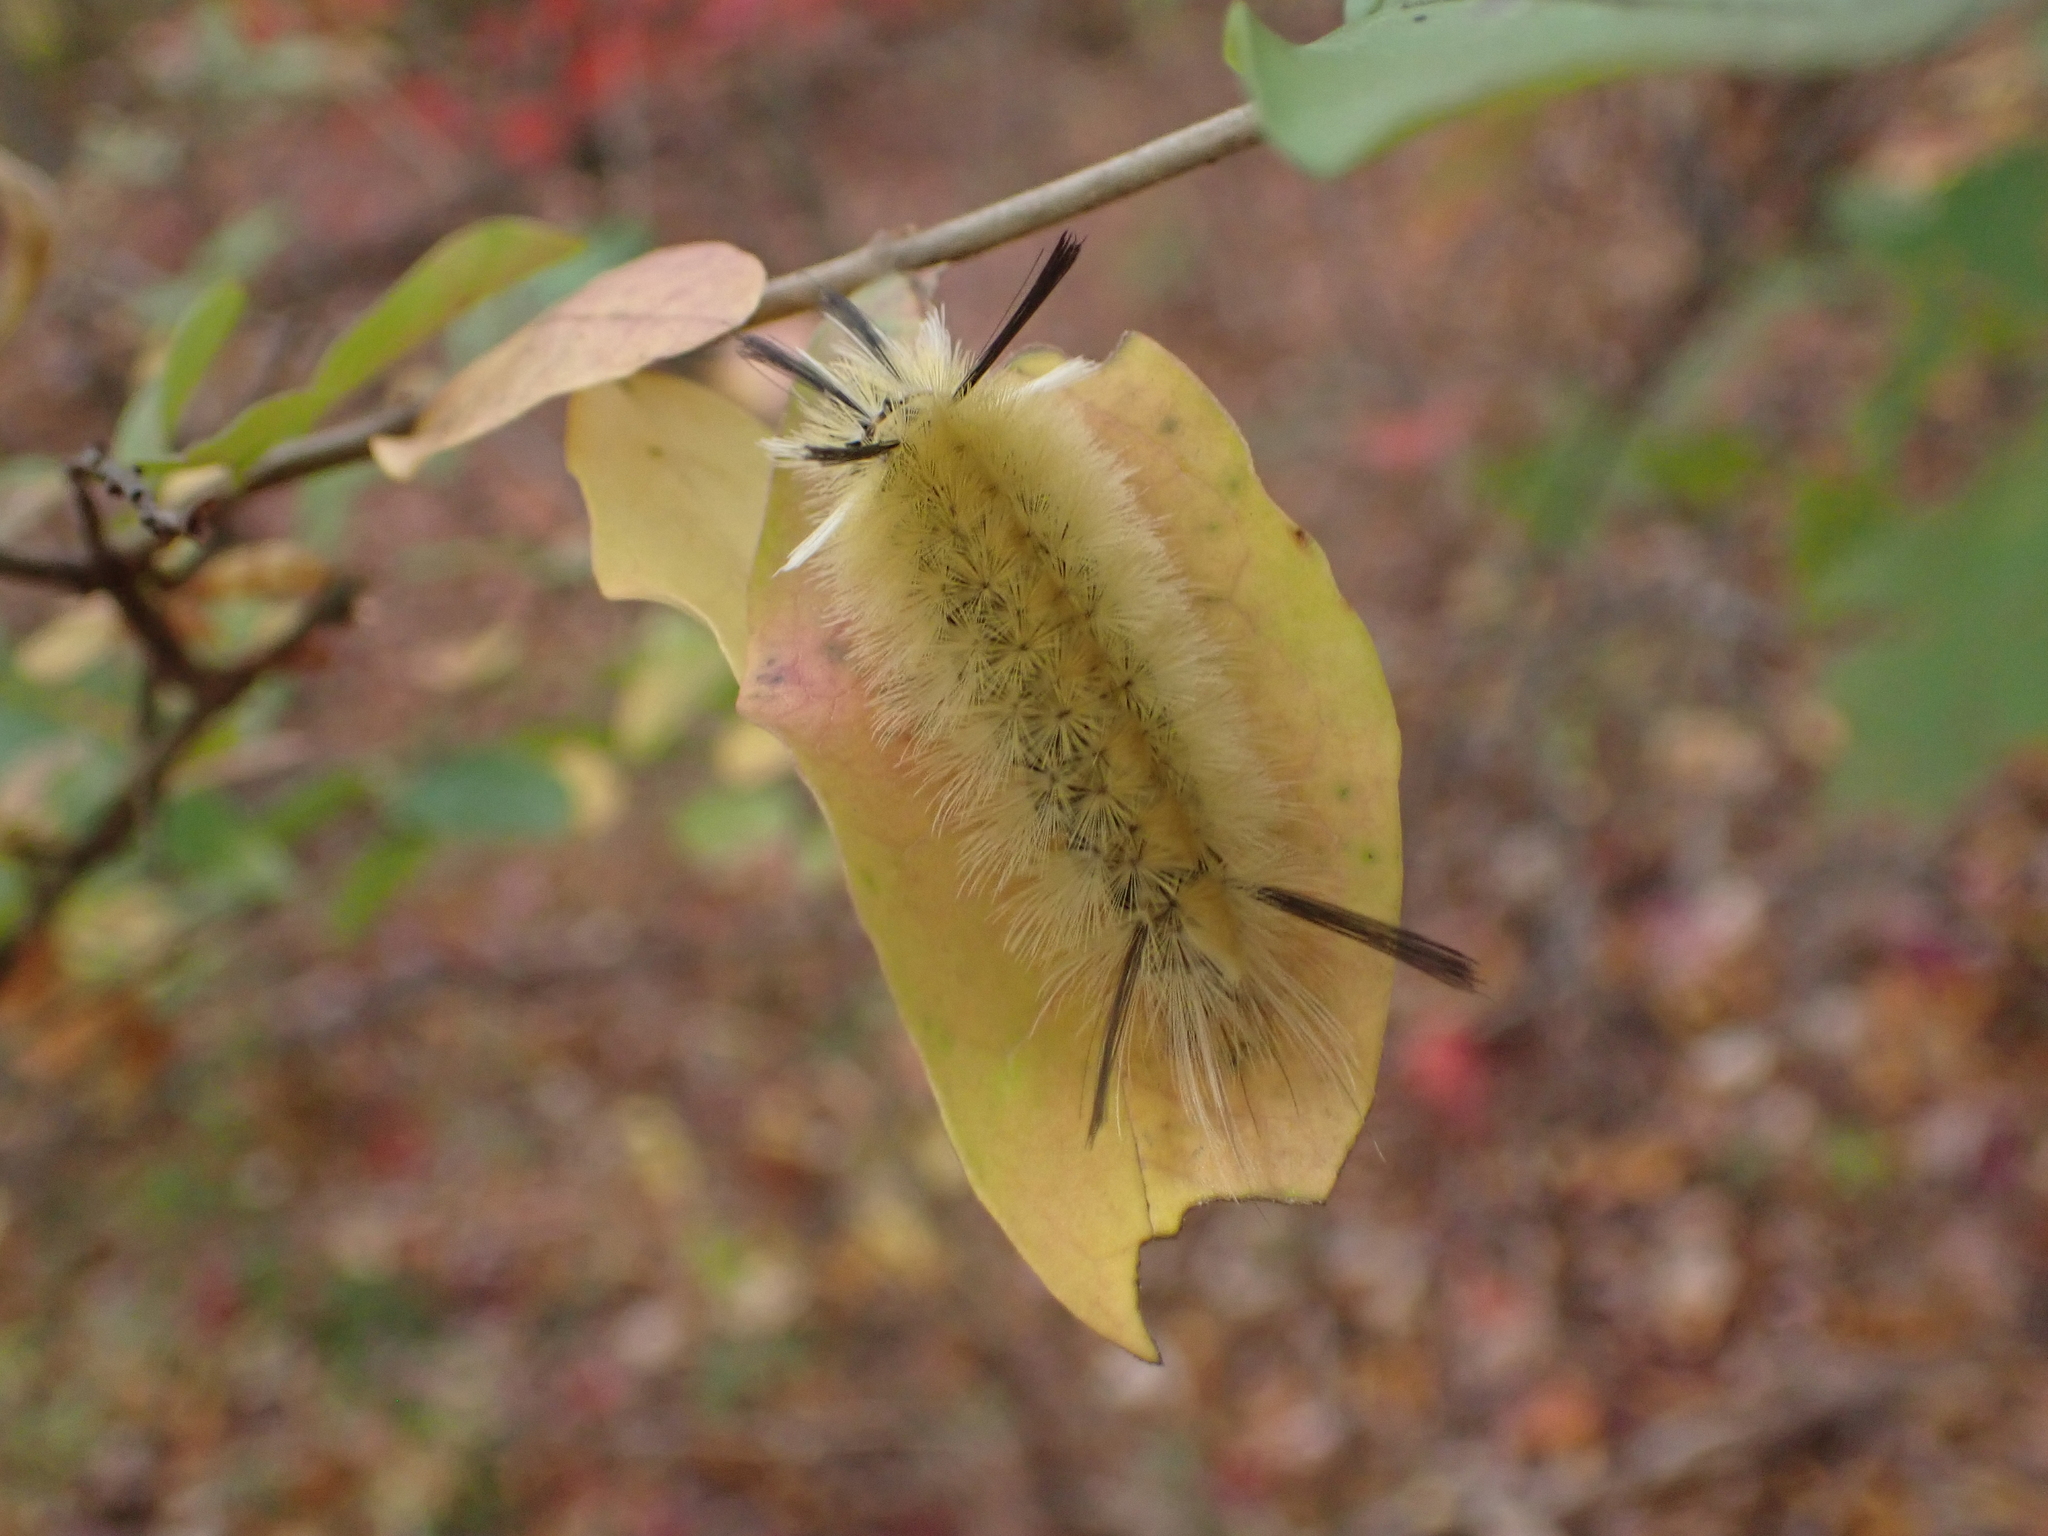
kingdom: Animalia
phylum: Arthropoda
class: Insecta
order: Lepidoptera
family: Erebidae
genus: Halysidota
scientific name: Halysidota tessellaris
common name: Banded tussock moth
